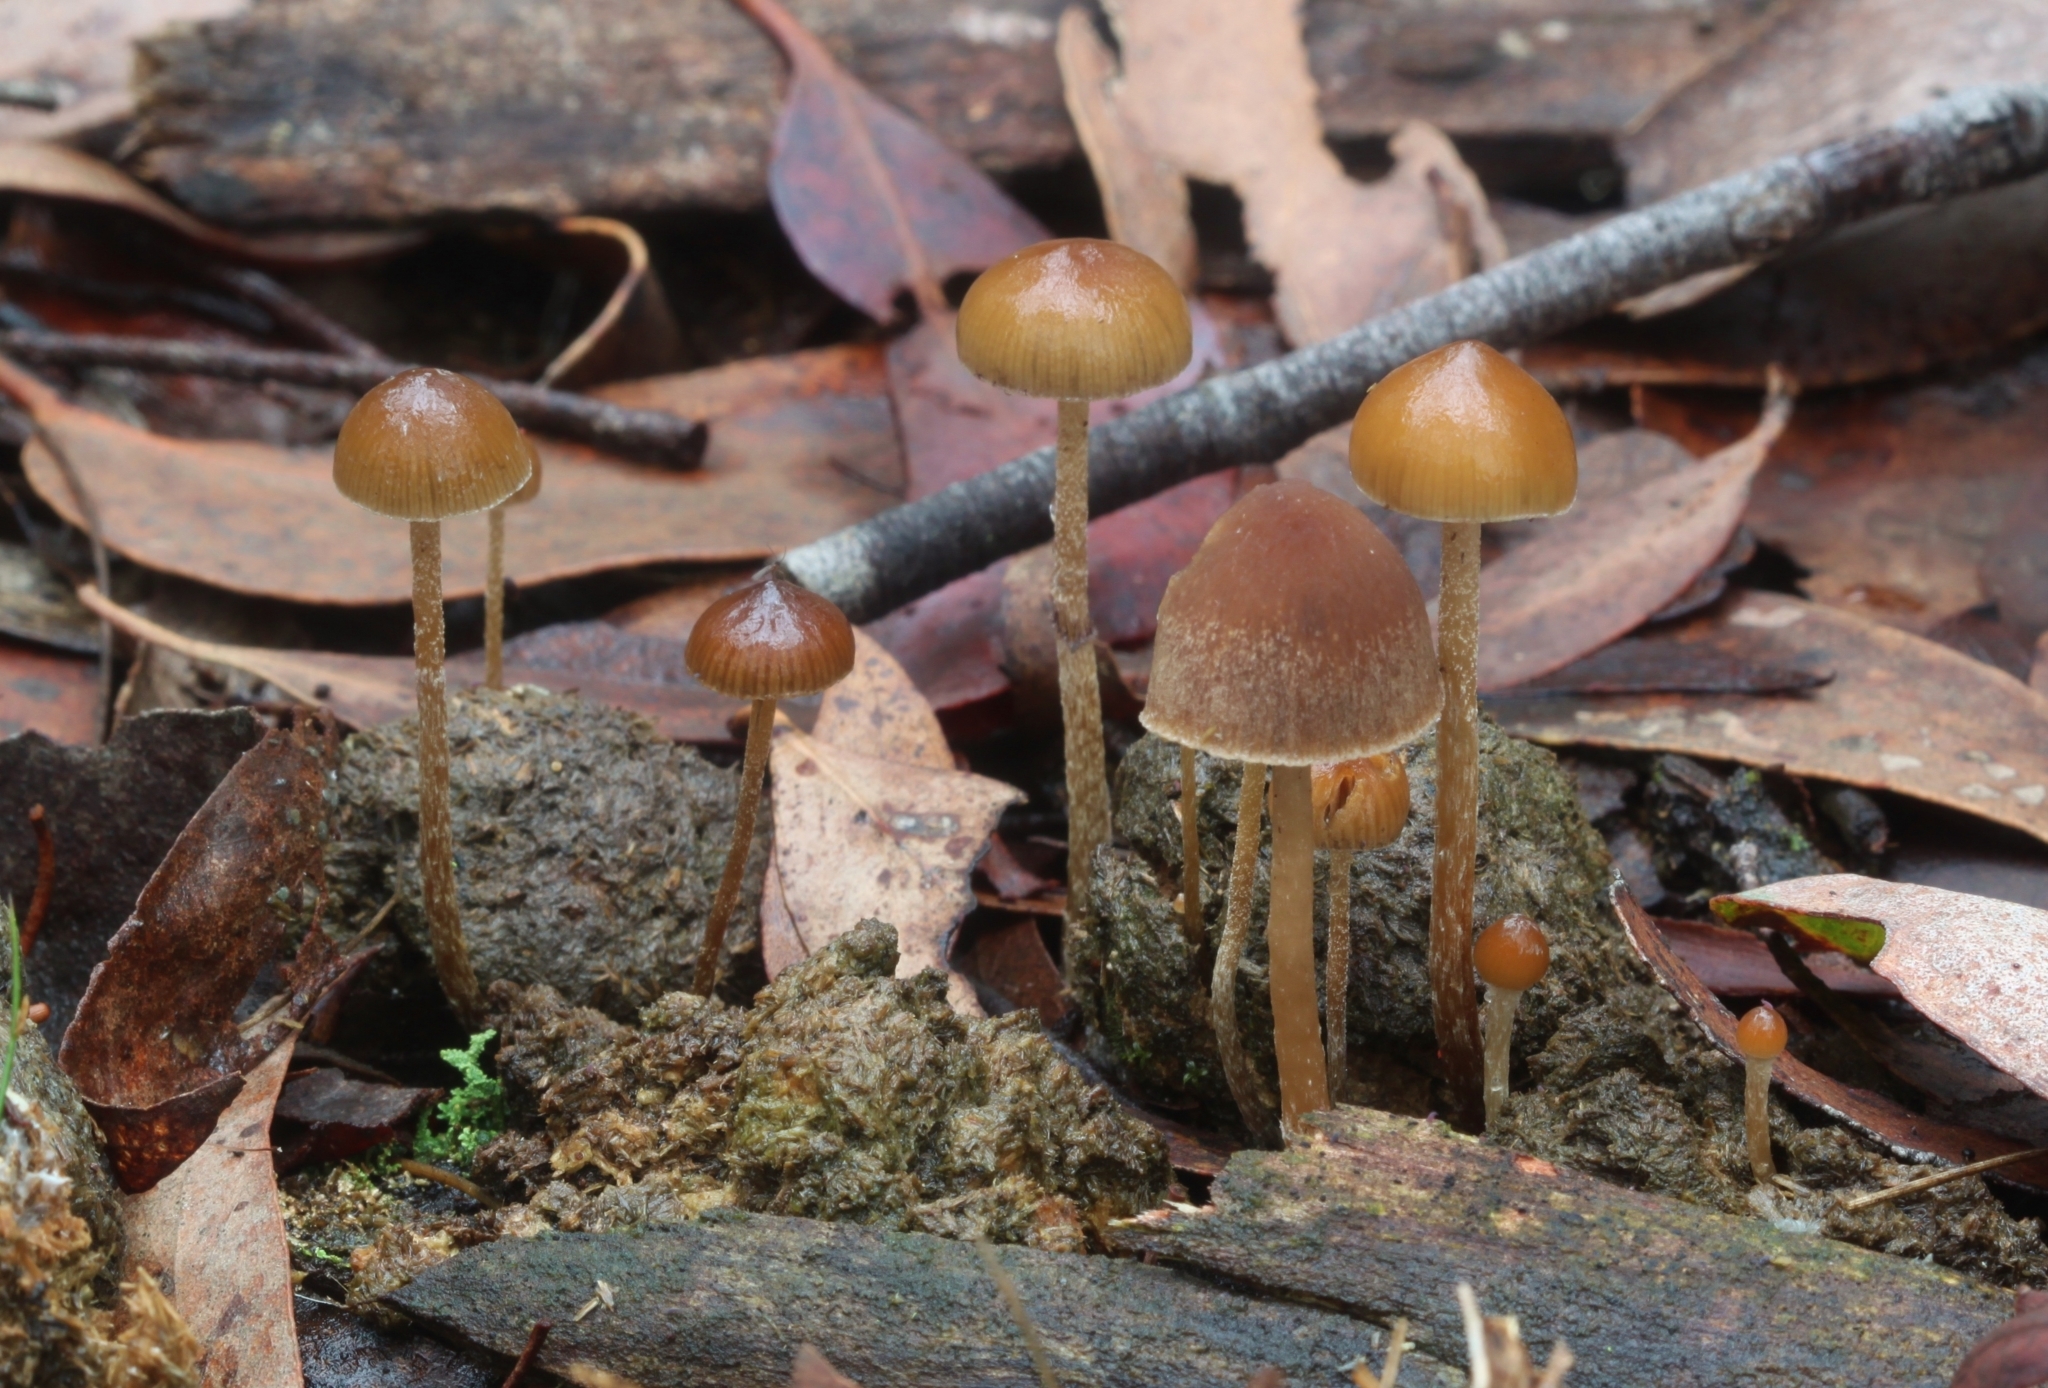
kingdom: Fungi
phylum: Basidiomycota
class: Agaricomycetes
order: Agaricales
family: Hymenogastraceae
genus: Psilocybe
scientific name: Psilocybe alutacea
